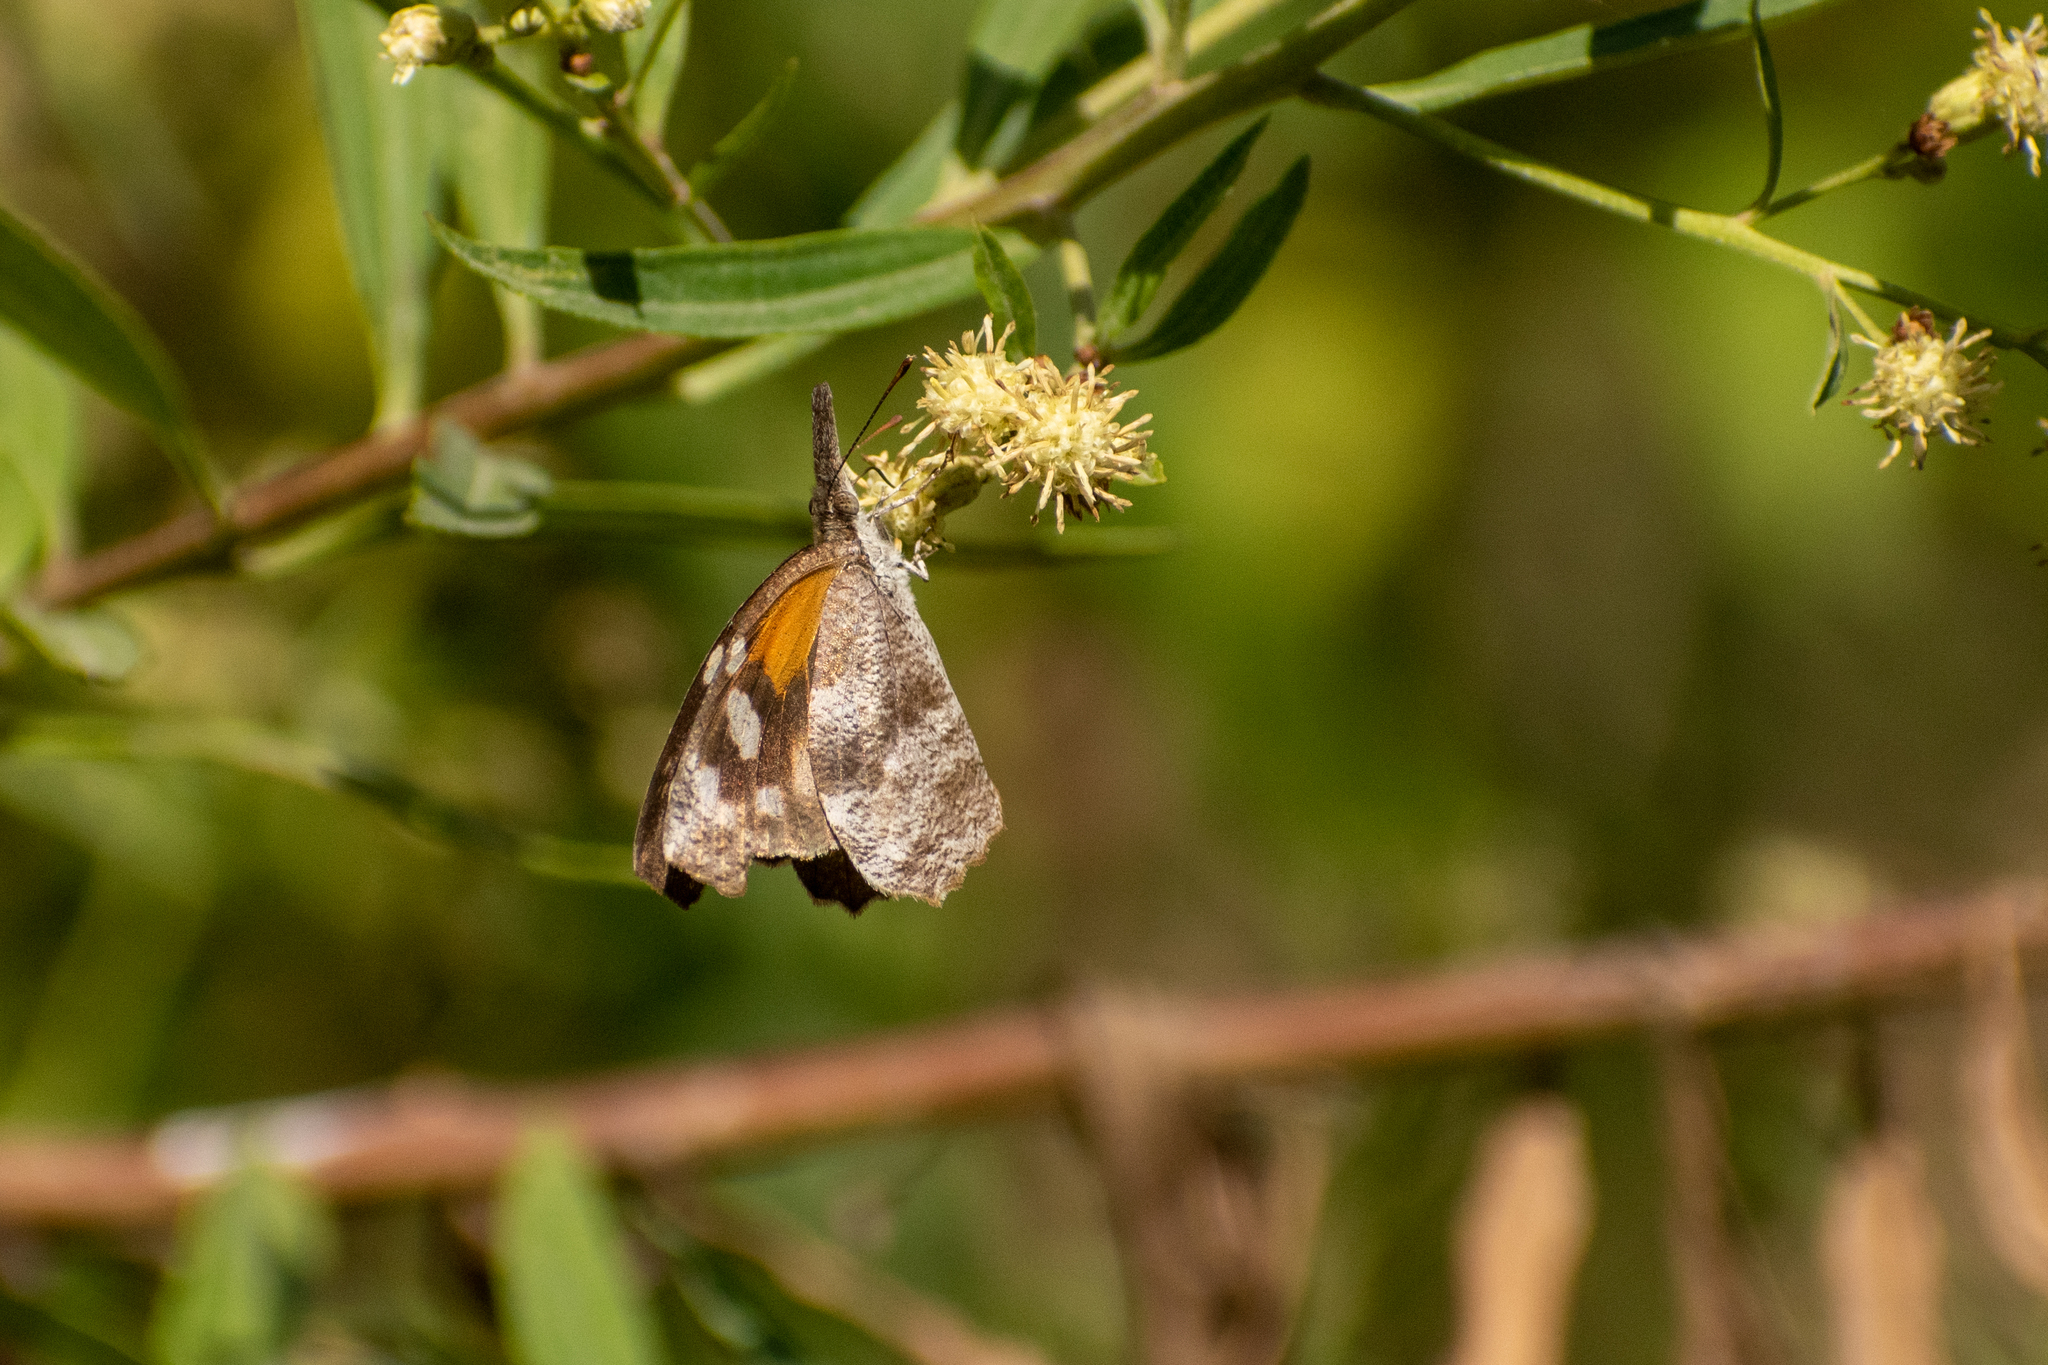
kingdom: Animalia
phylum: Arthropoda
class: Insecta
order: Lepidoptera
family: Nymphalidae
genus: Libytheana
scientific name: Libytheana carinenta
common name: American snout
